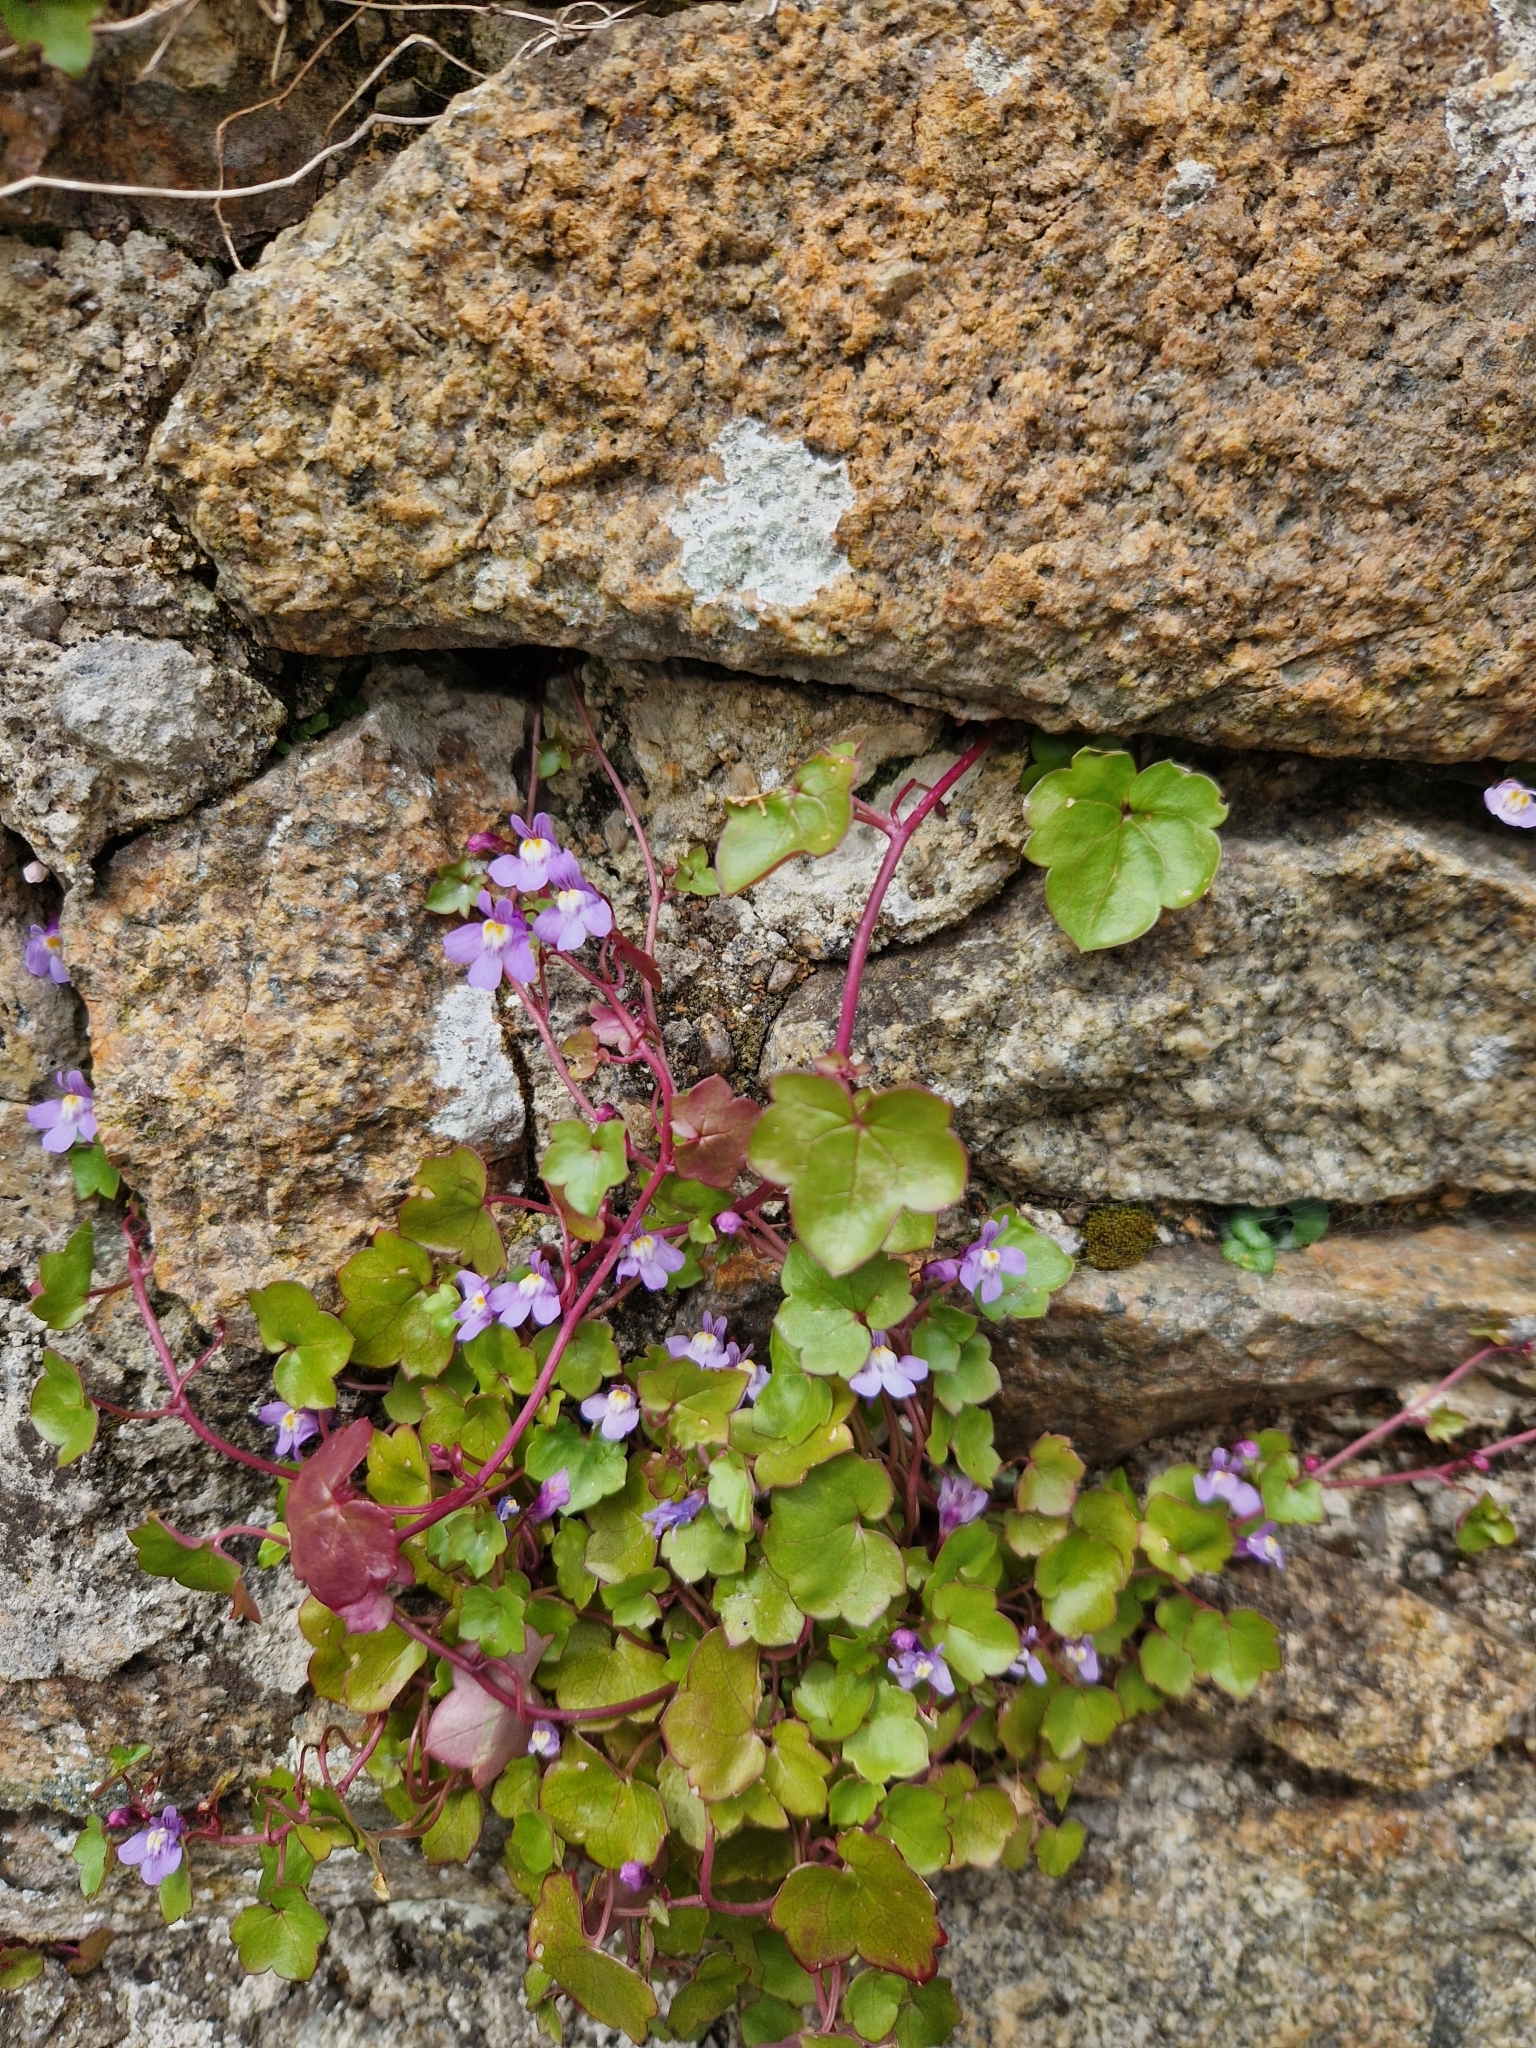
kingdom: Plantae
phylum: Tracheophyta
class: Magnoliopsida
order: Lamiales
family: Plantaginaceae
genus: Cymbalaria
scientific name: Cymbalaria muralis
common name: Ivy-leaved toadflax
